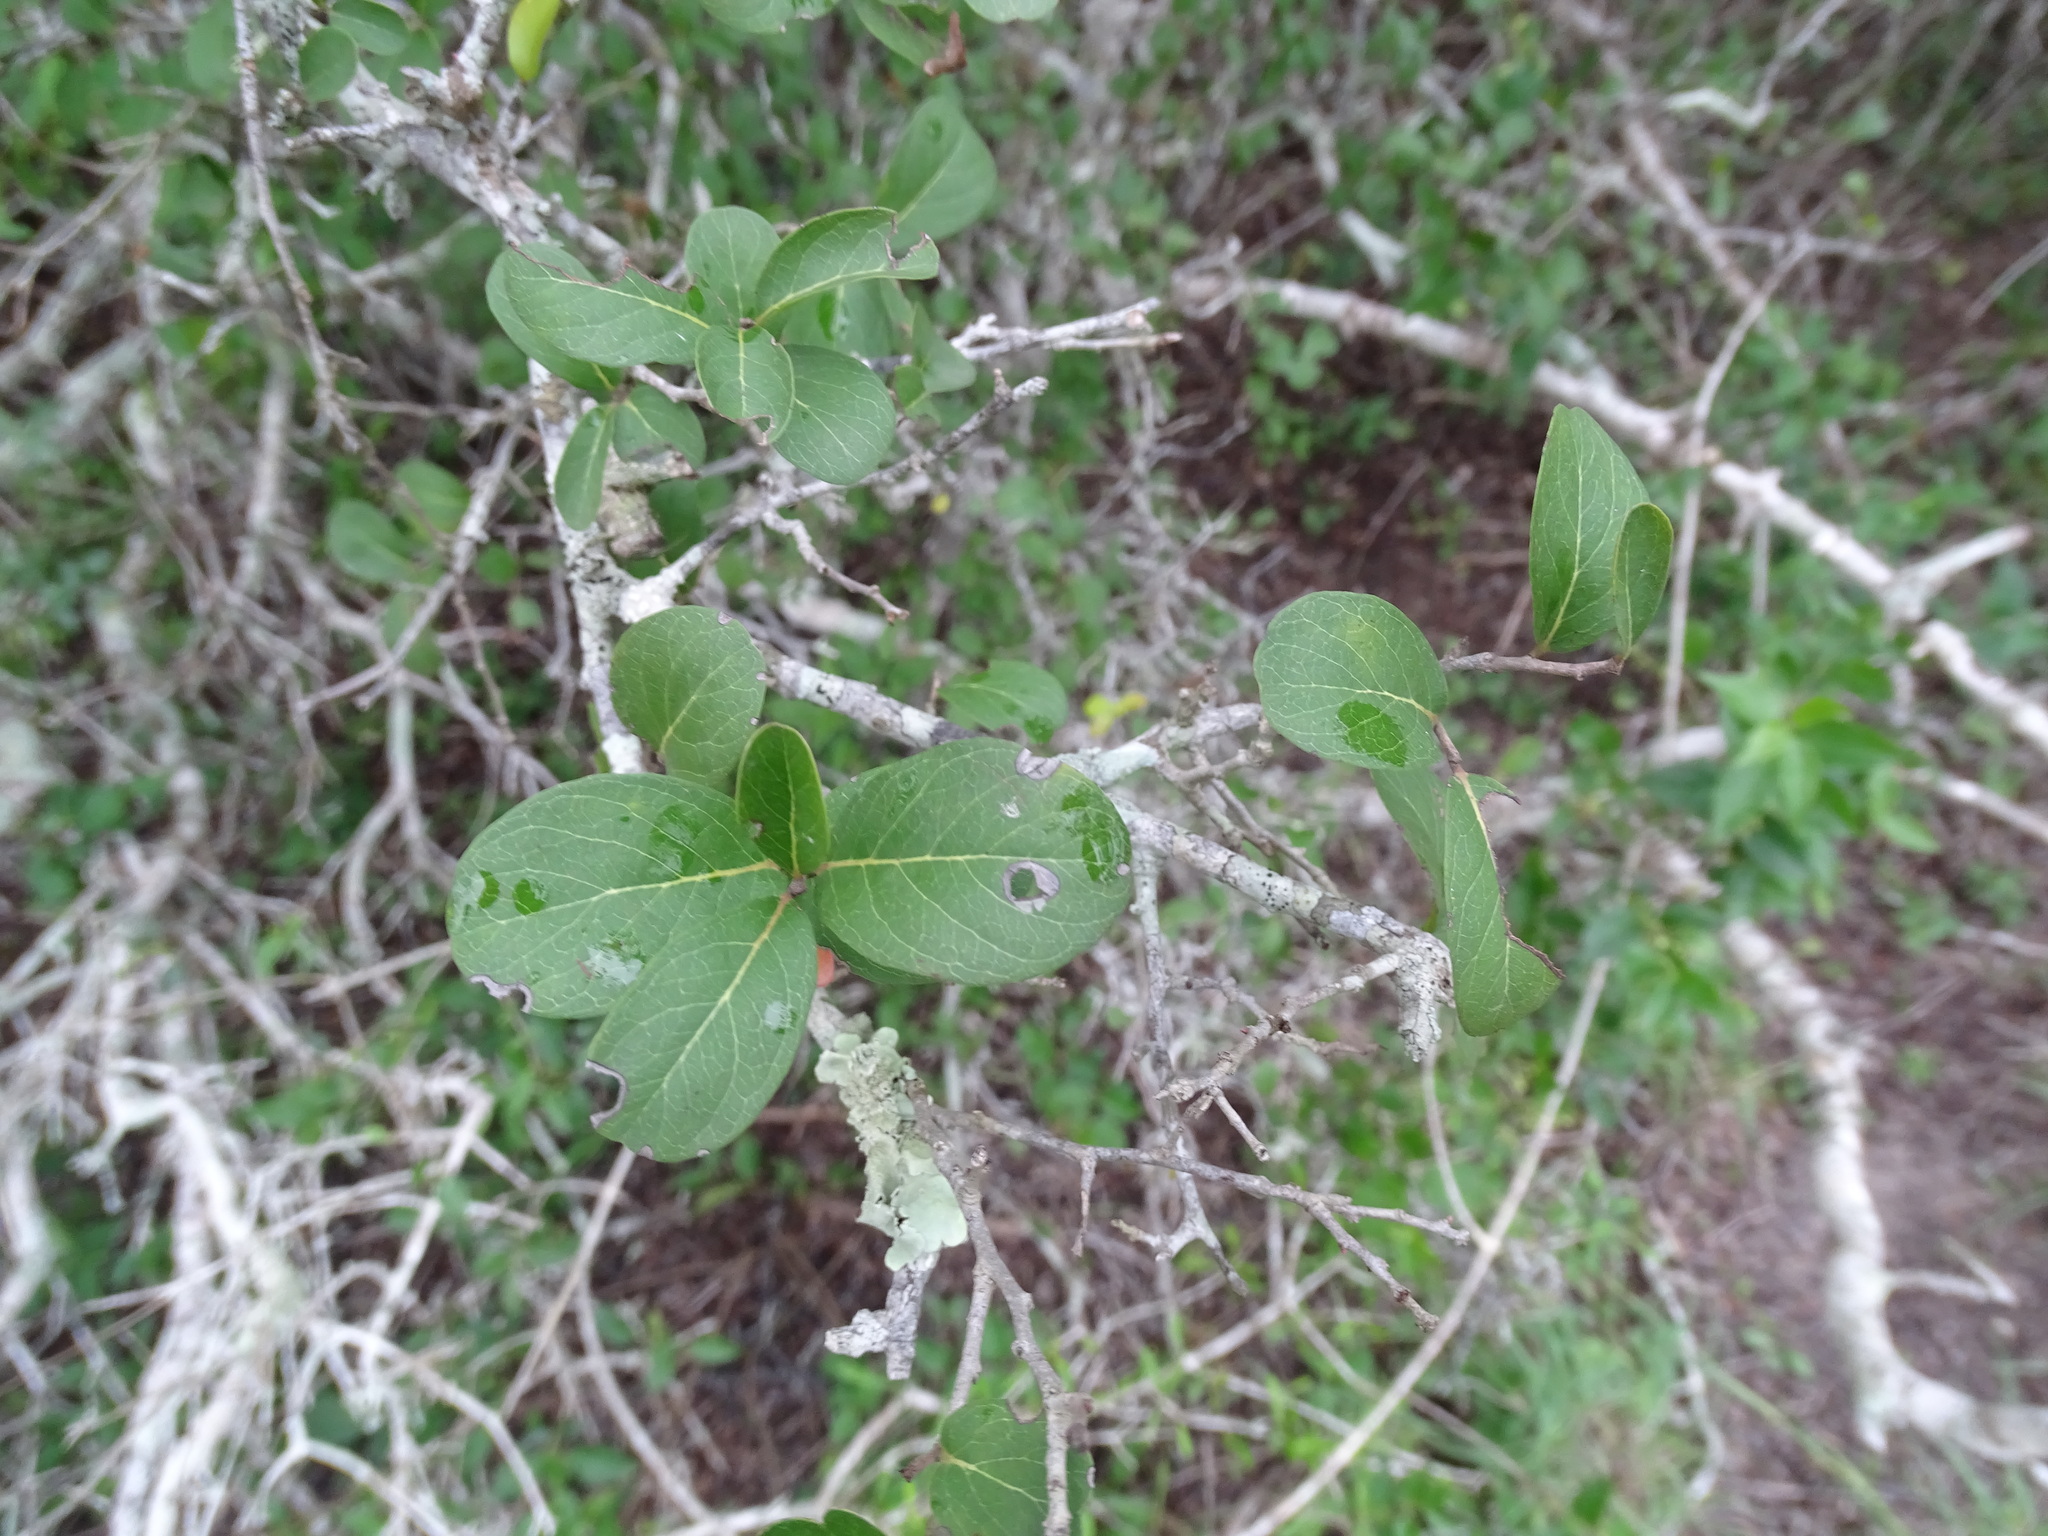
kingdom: Plantae
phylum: Tracheophyta
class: Magnoliopsida
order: Ericales
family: Ebenaceae
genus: Diospyros
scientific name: Diospyros palmeri
